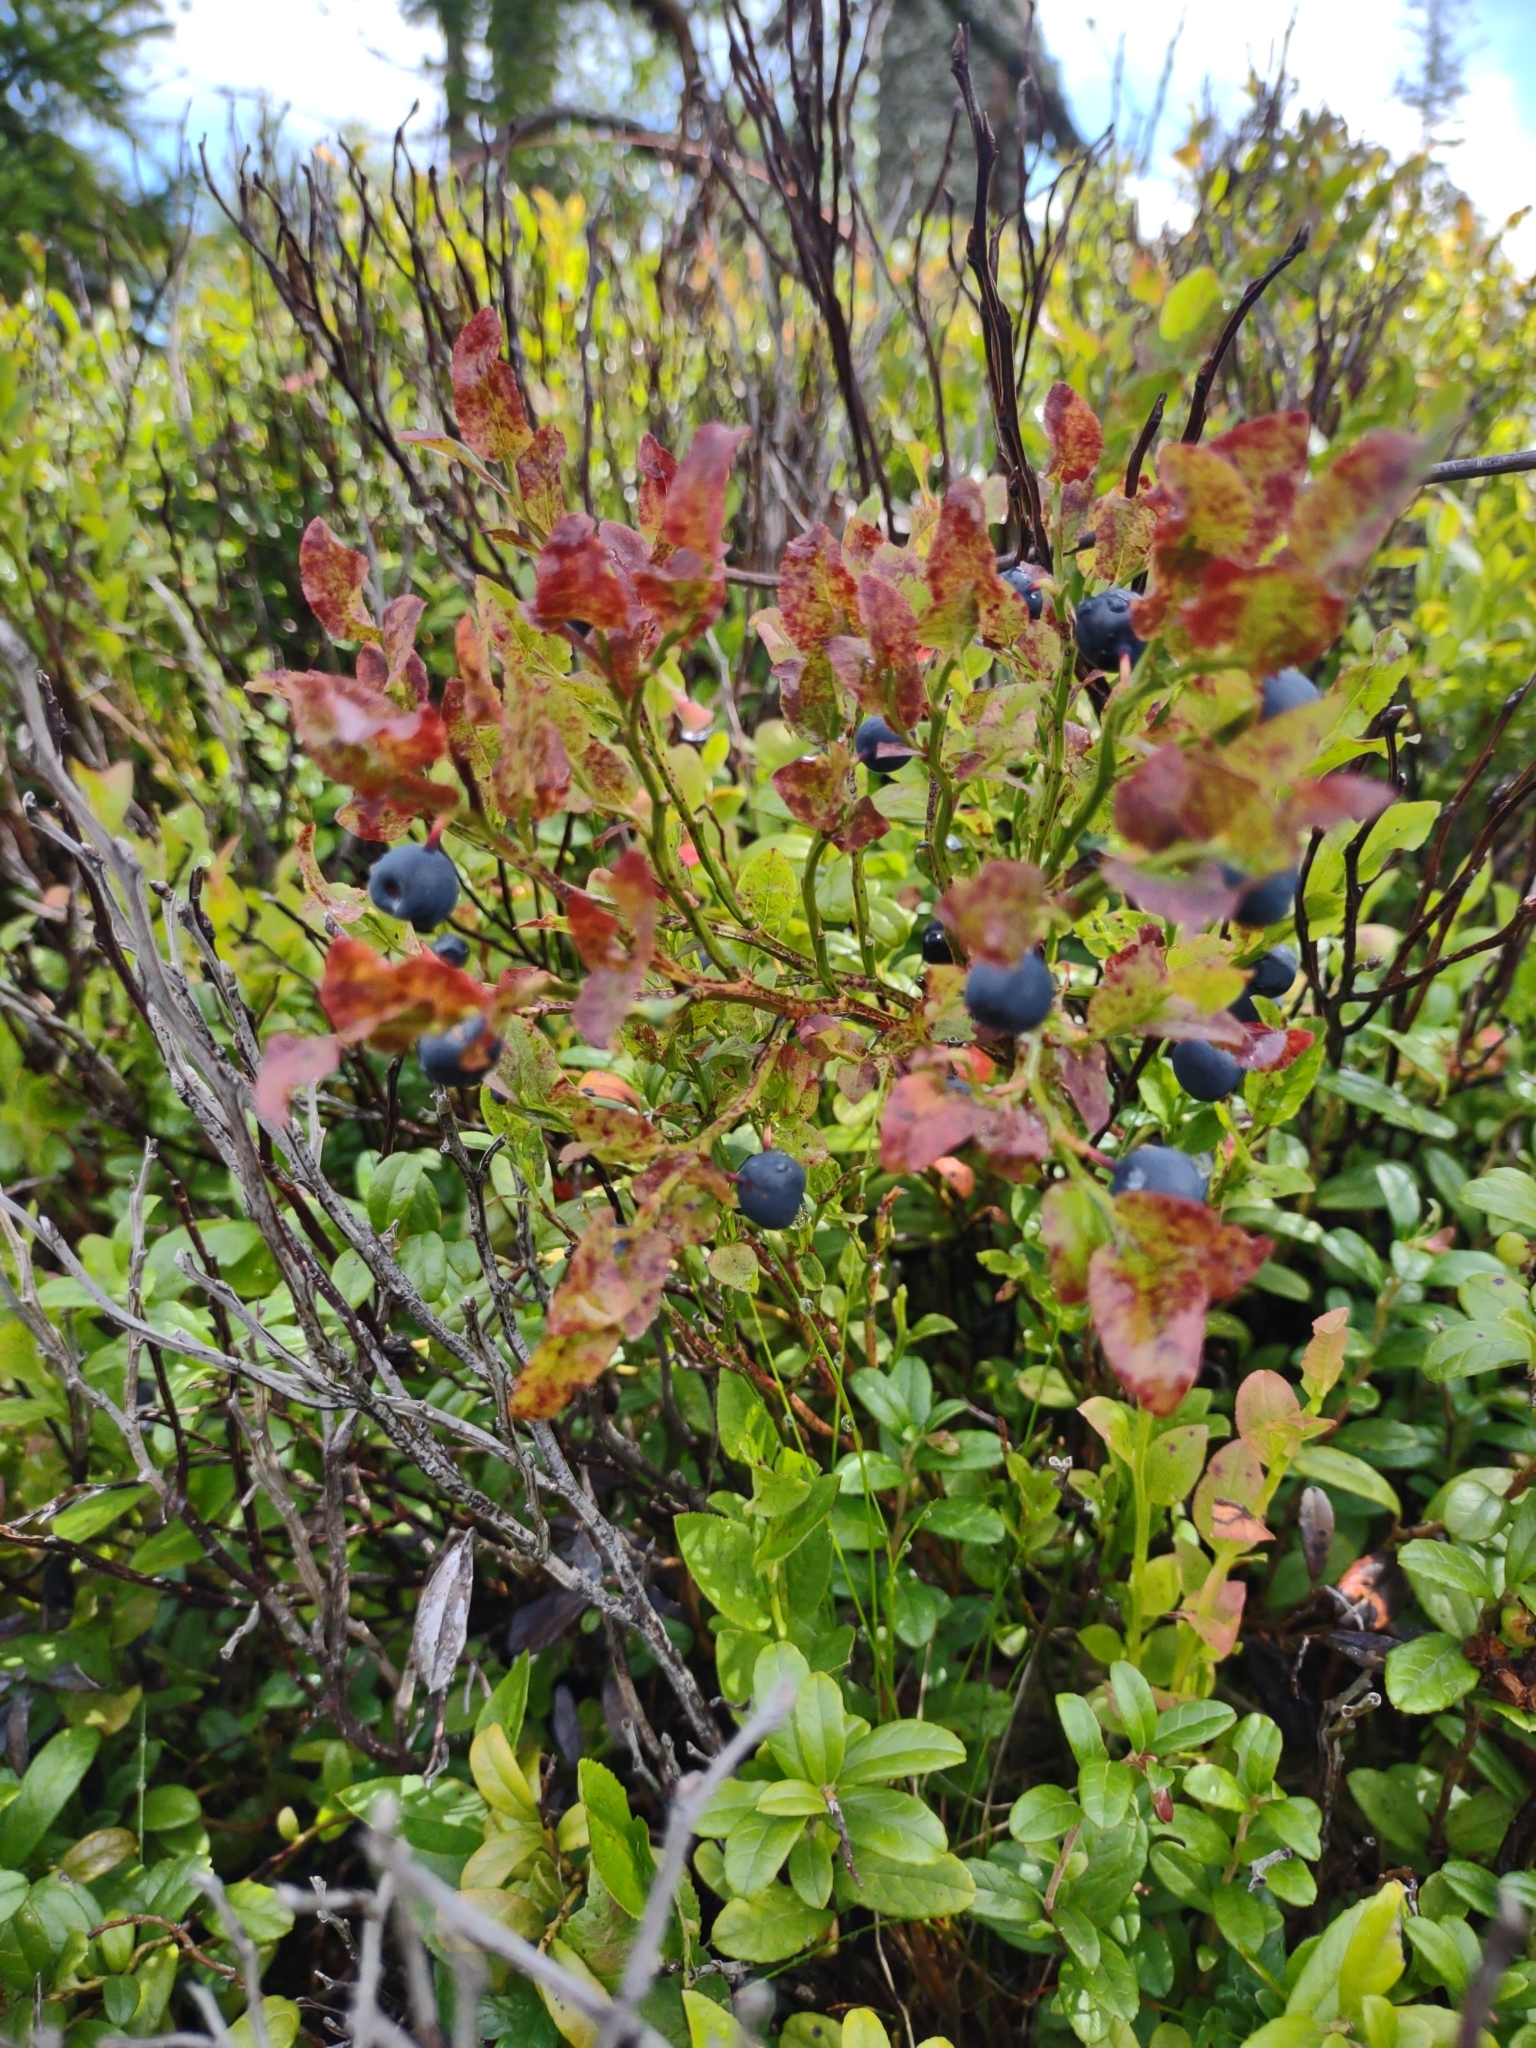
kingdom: Plantae
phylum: Tracheophyta
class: Magnoliopsida
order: Ericales
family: Ericaceae
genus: Vaccinium
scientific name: Vaccinium myrtillus
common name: Bilberry
